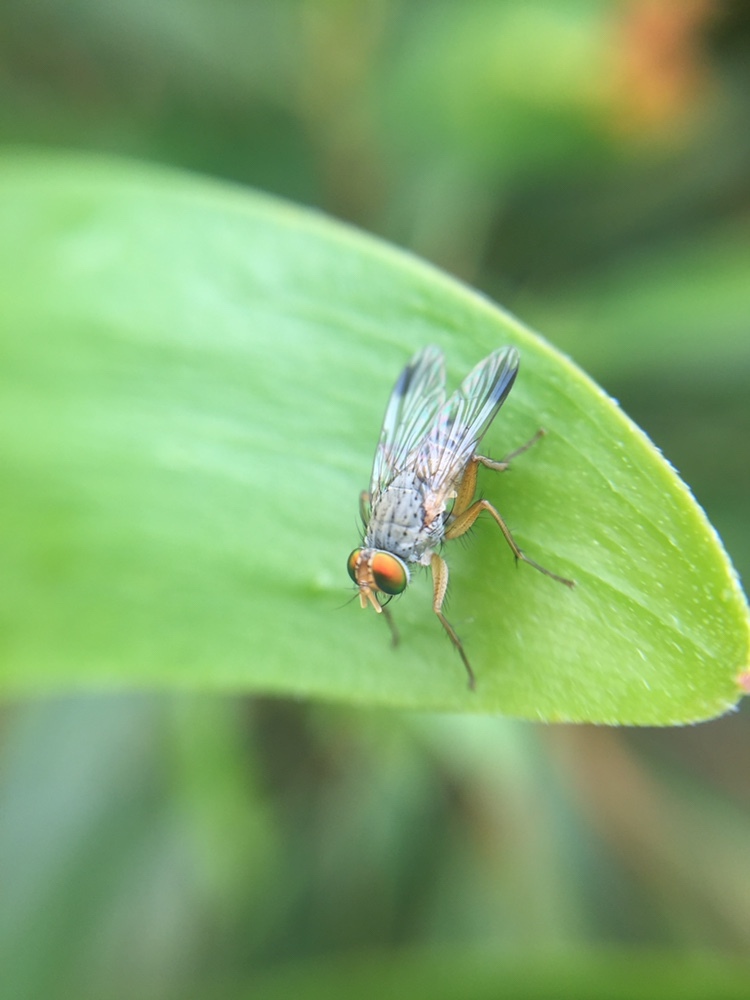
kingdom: Animalia
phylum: Arthropoda
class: Insecta
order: Diptera
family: Muscidae
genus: Pygophora
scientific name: Pygophora apicalis
